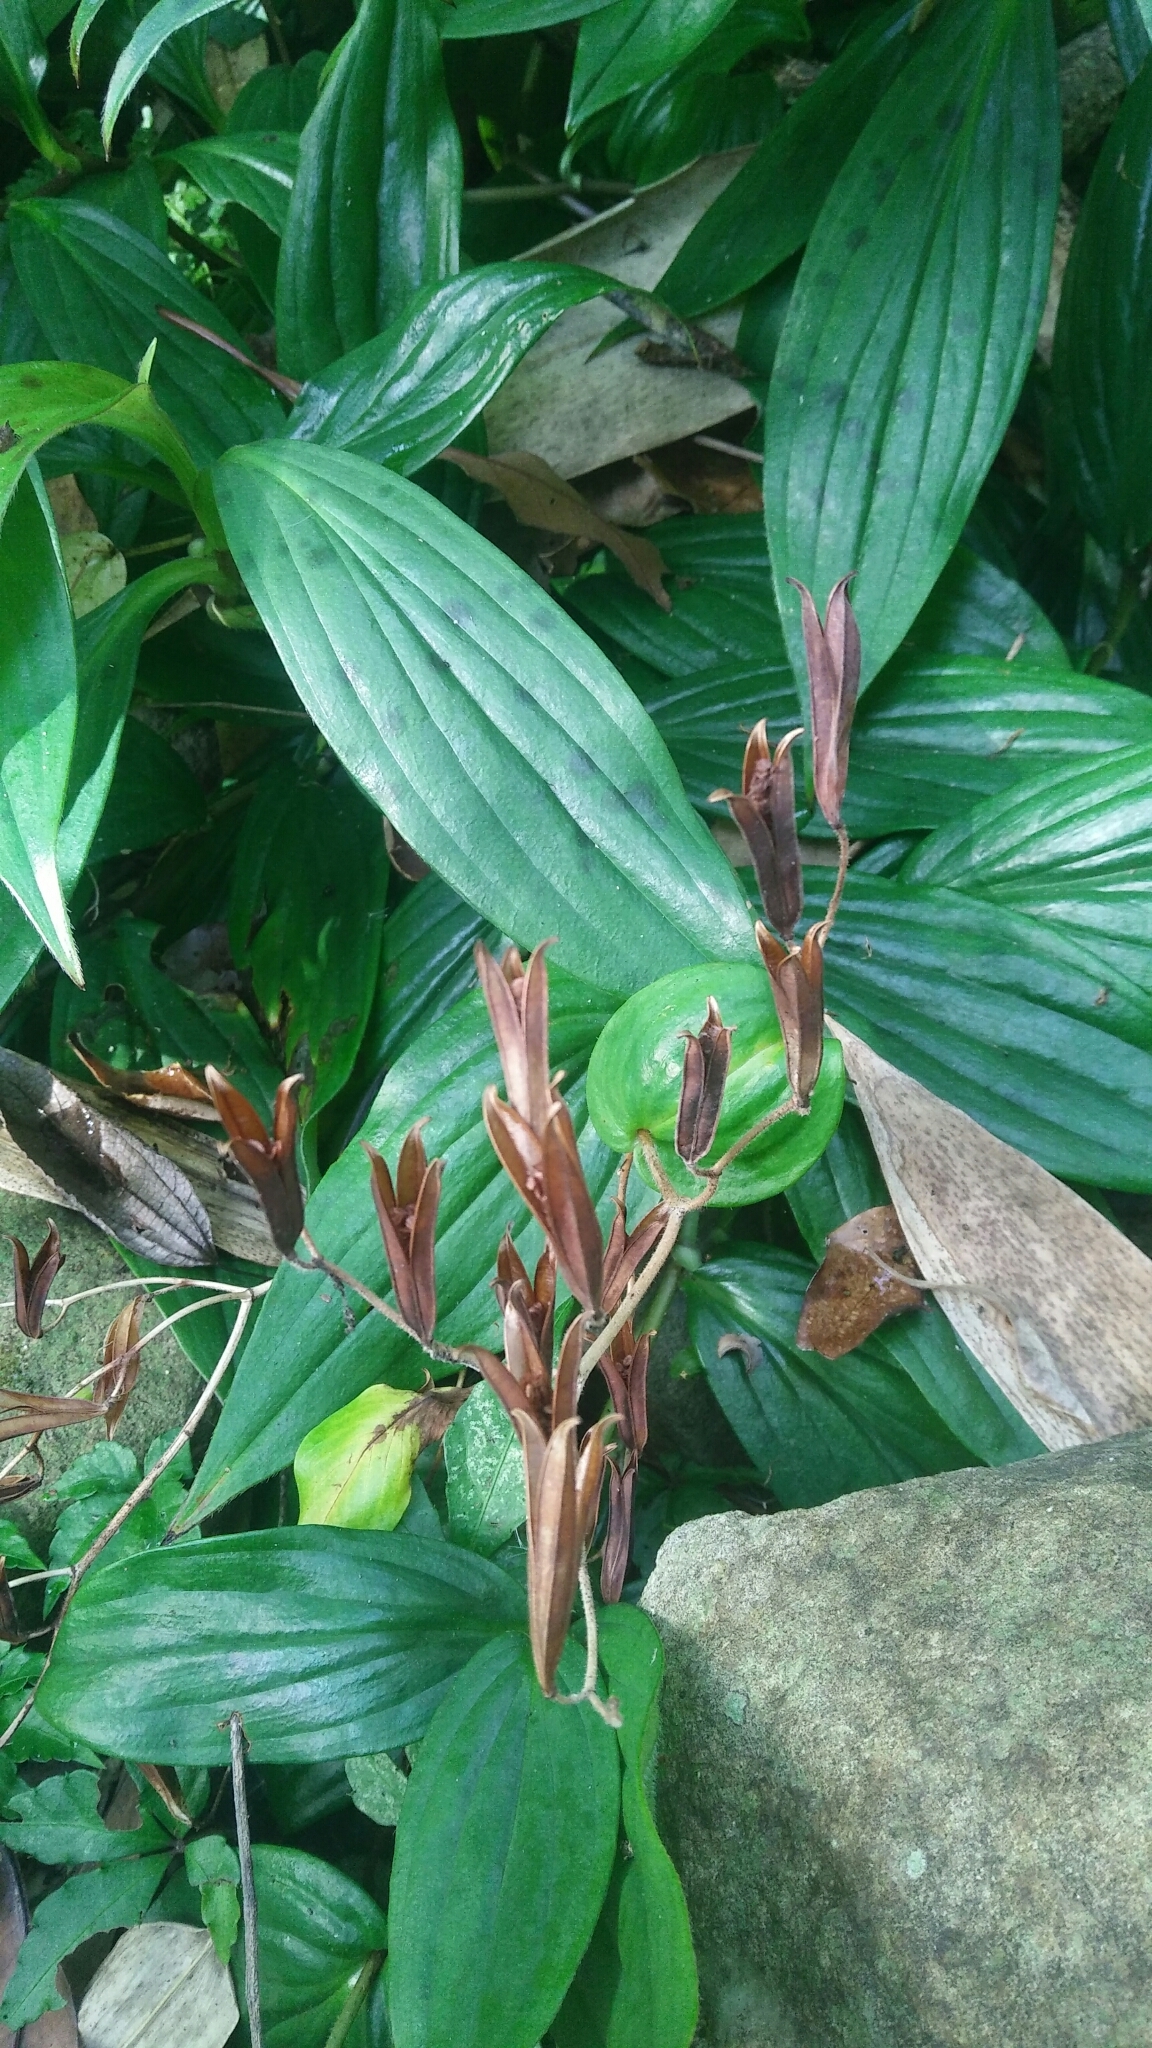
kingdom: Plantae
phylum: Tracheophyta
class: Liliopsida
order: Liliales
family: Liliaceae
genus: Tricyrtis
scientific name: Tricyrtis formosana
